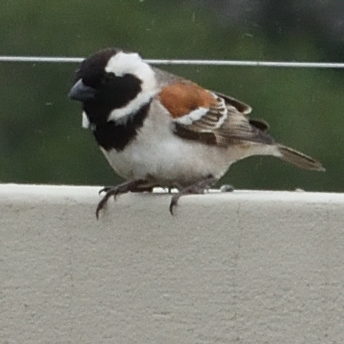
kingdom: Animalia
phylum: Chordata
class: Aves
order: Passeriformes
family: Passeridae
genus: Passer
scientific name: Passer melanurus
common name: Cape sparrow
